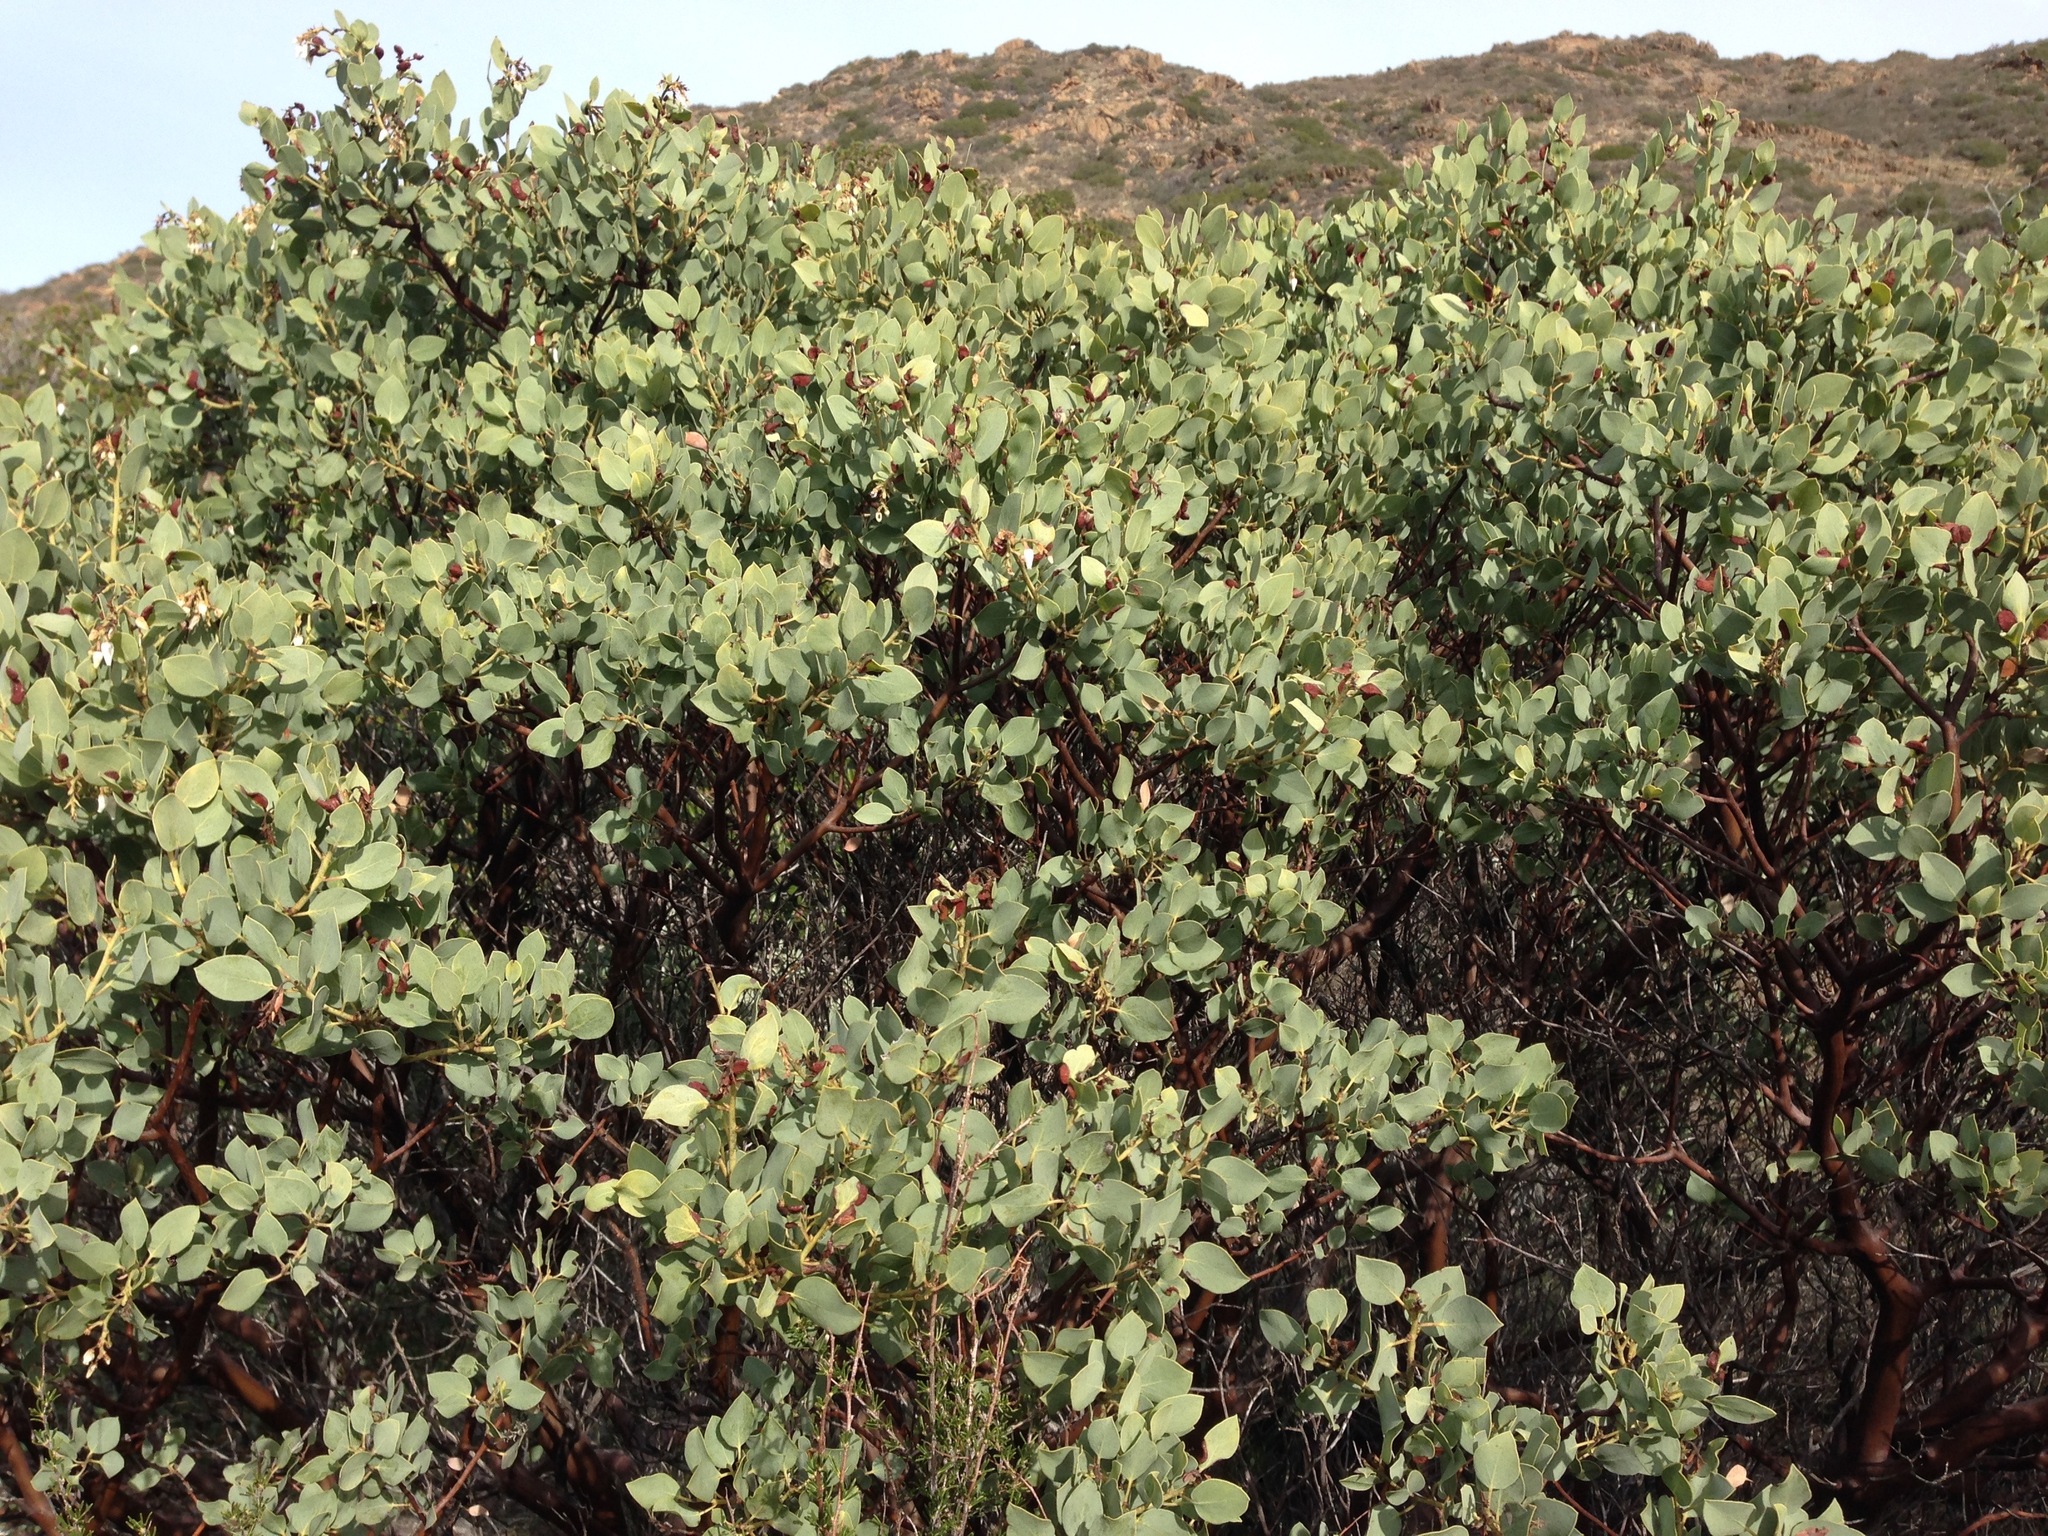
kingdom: Plantae
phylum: Tracheophyta
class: Magnoliopsida
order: Ericales
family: Ericaceae
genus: Arctostaphylos
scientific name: Arctostaphylos glauca
